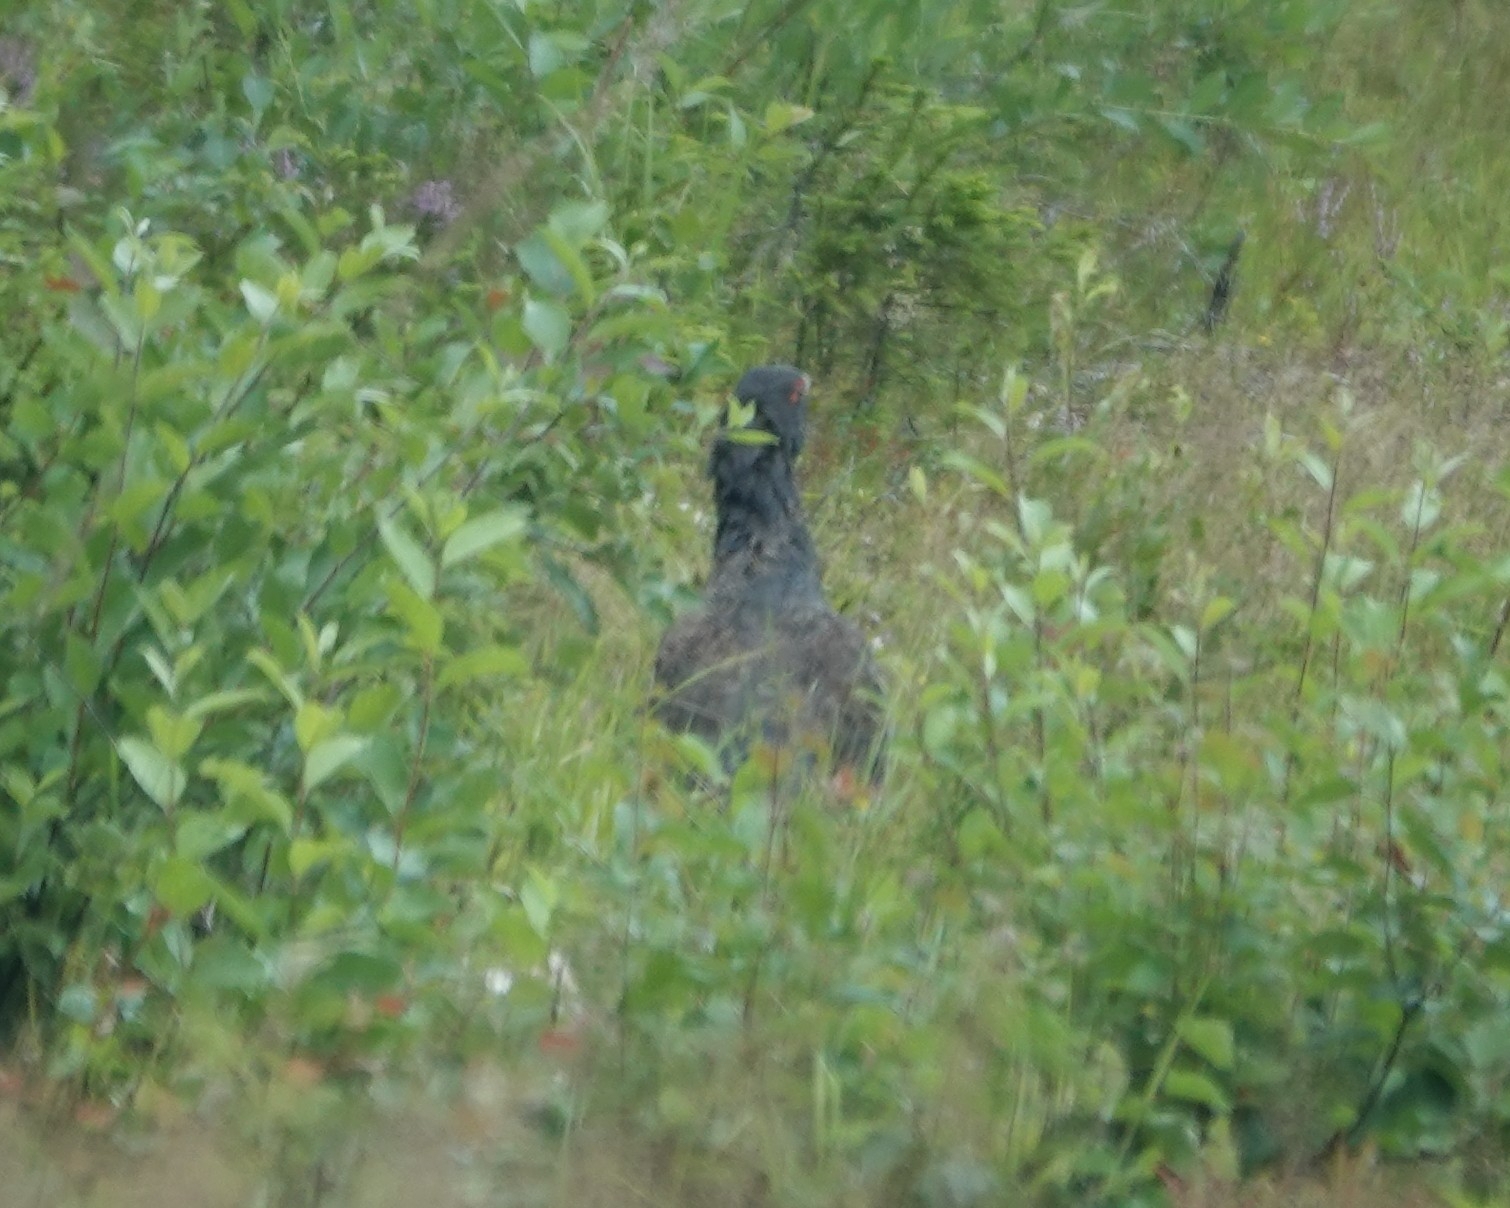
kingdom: Animalia
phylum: Chordata
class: Aves
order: Galliformes
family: Phasianidae
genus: Tetrao
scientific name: Tetrao urogallus
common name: Western capercaillie
